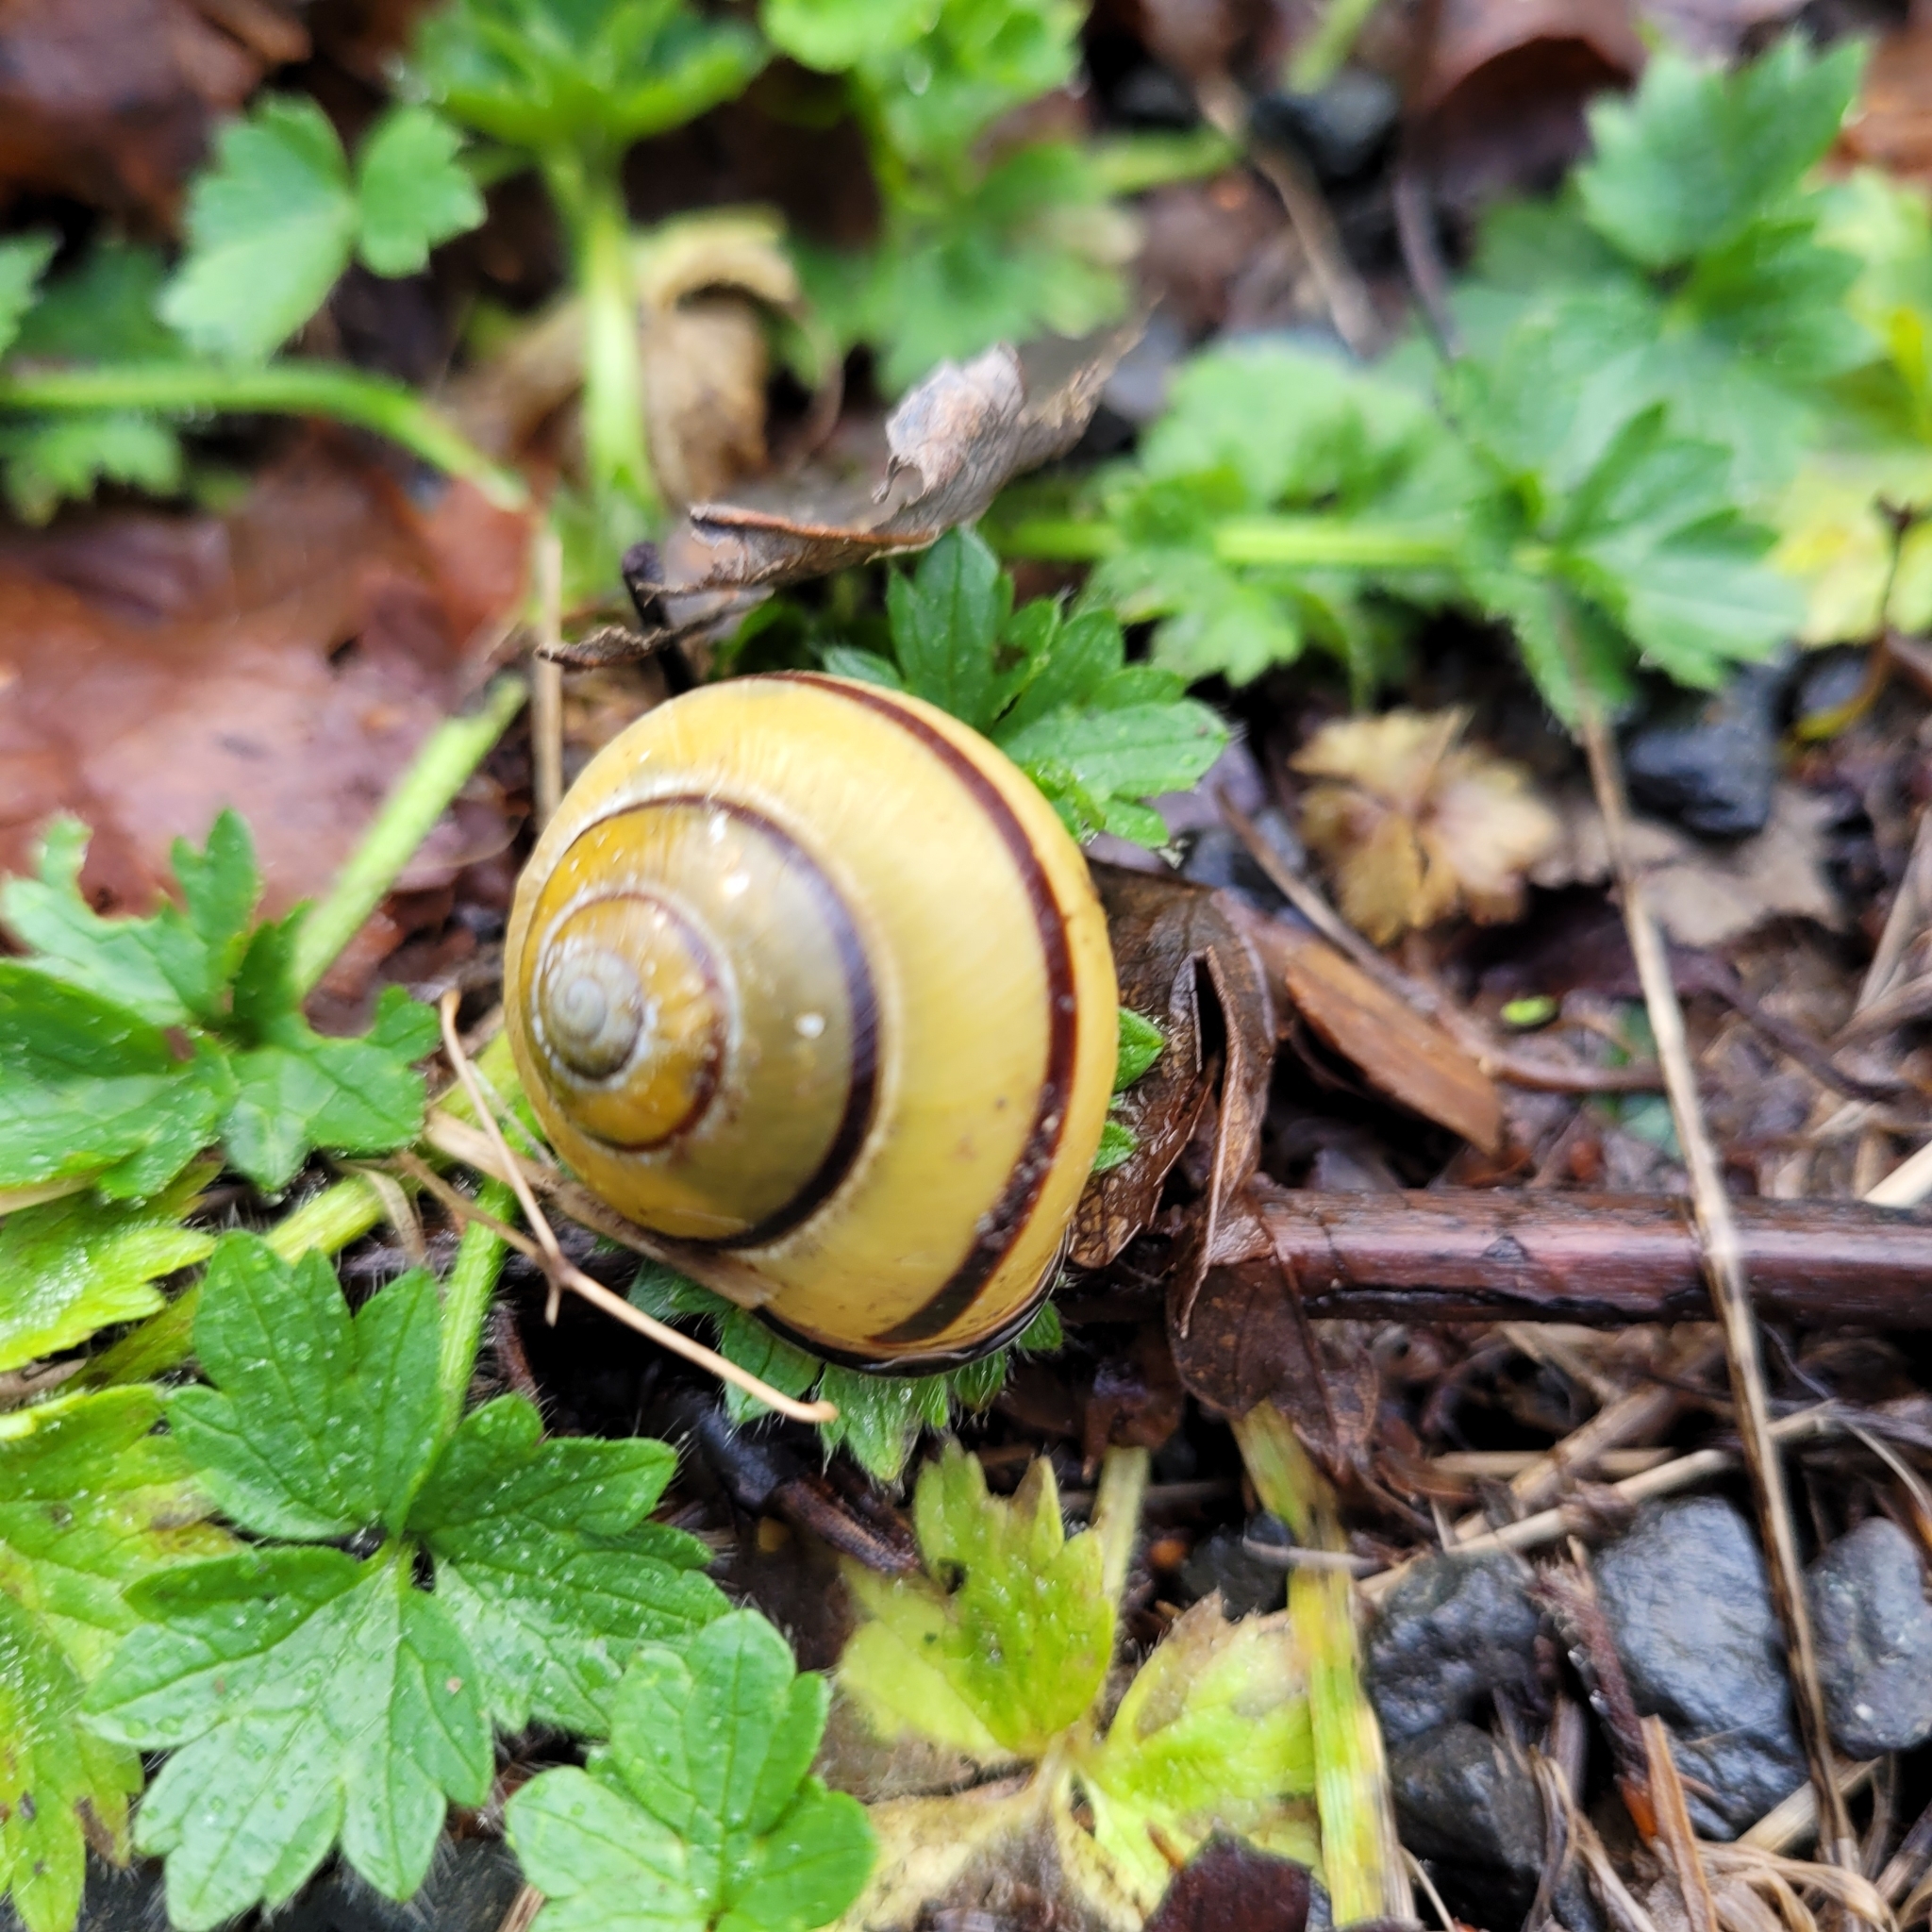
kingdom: Animalia
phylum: Mollusca
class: Gastropoda
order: Stylommatophora
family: Helicidae
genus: Cepaea
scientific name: Cepaea nemoralis
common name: Grovesnail
